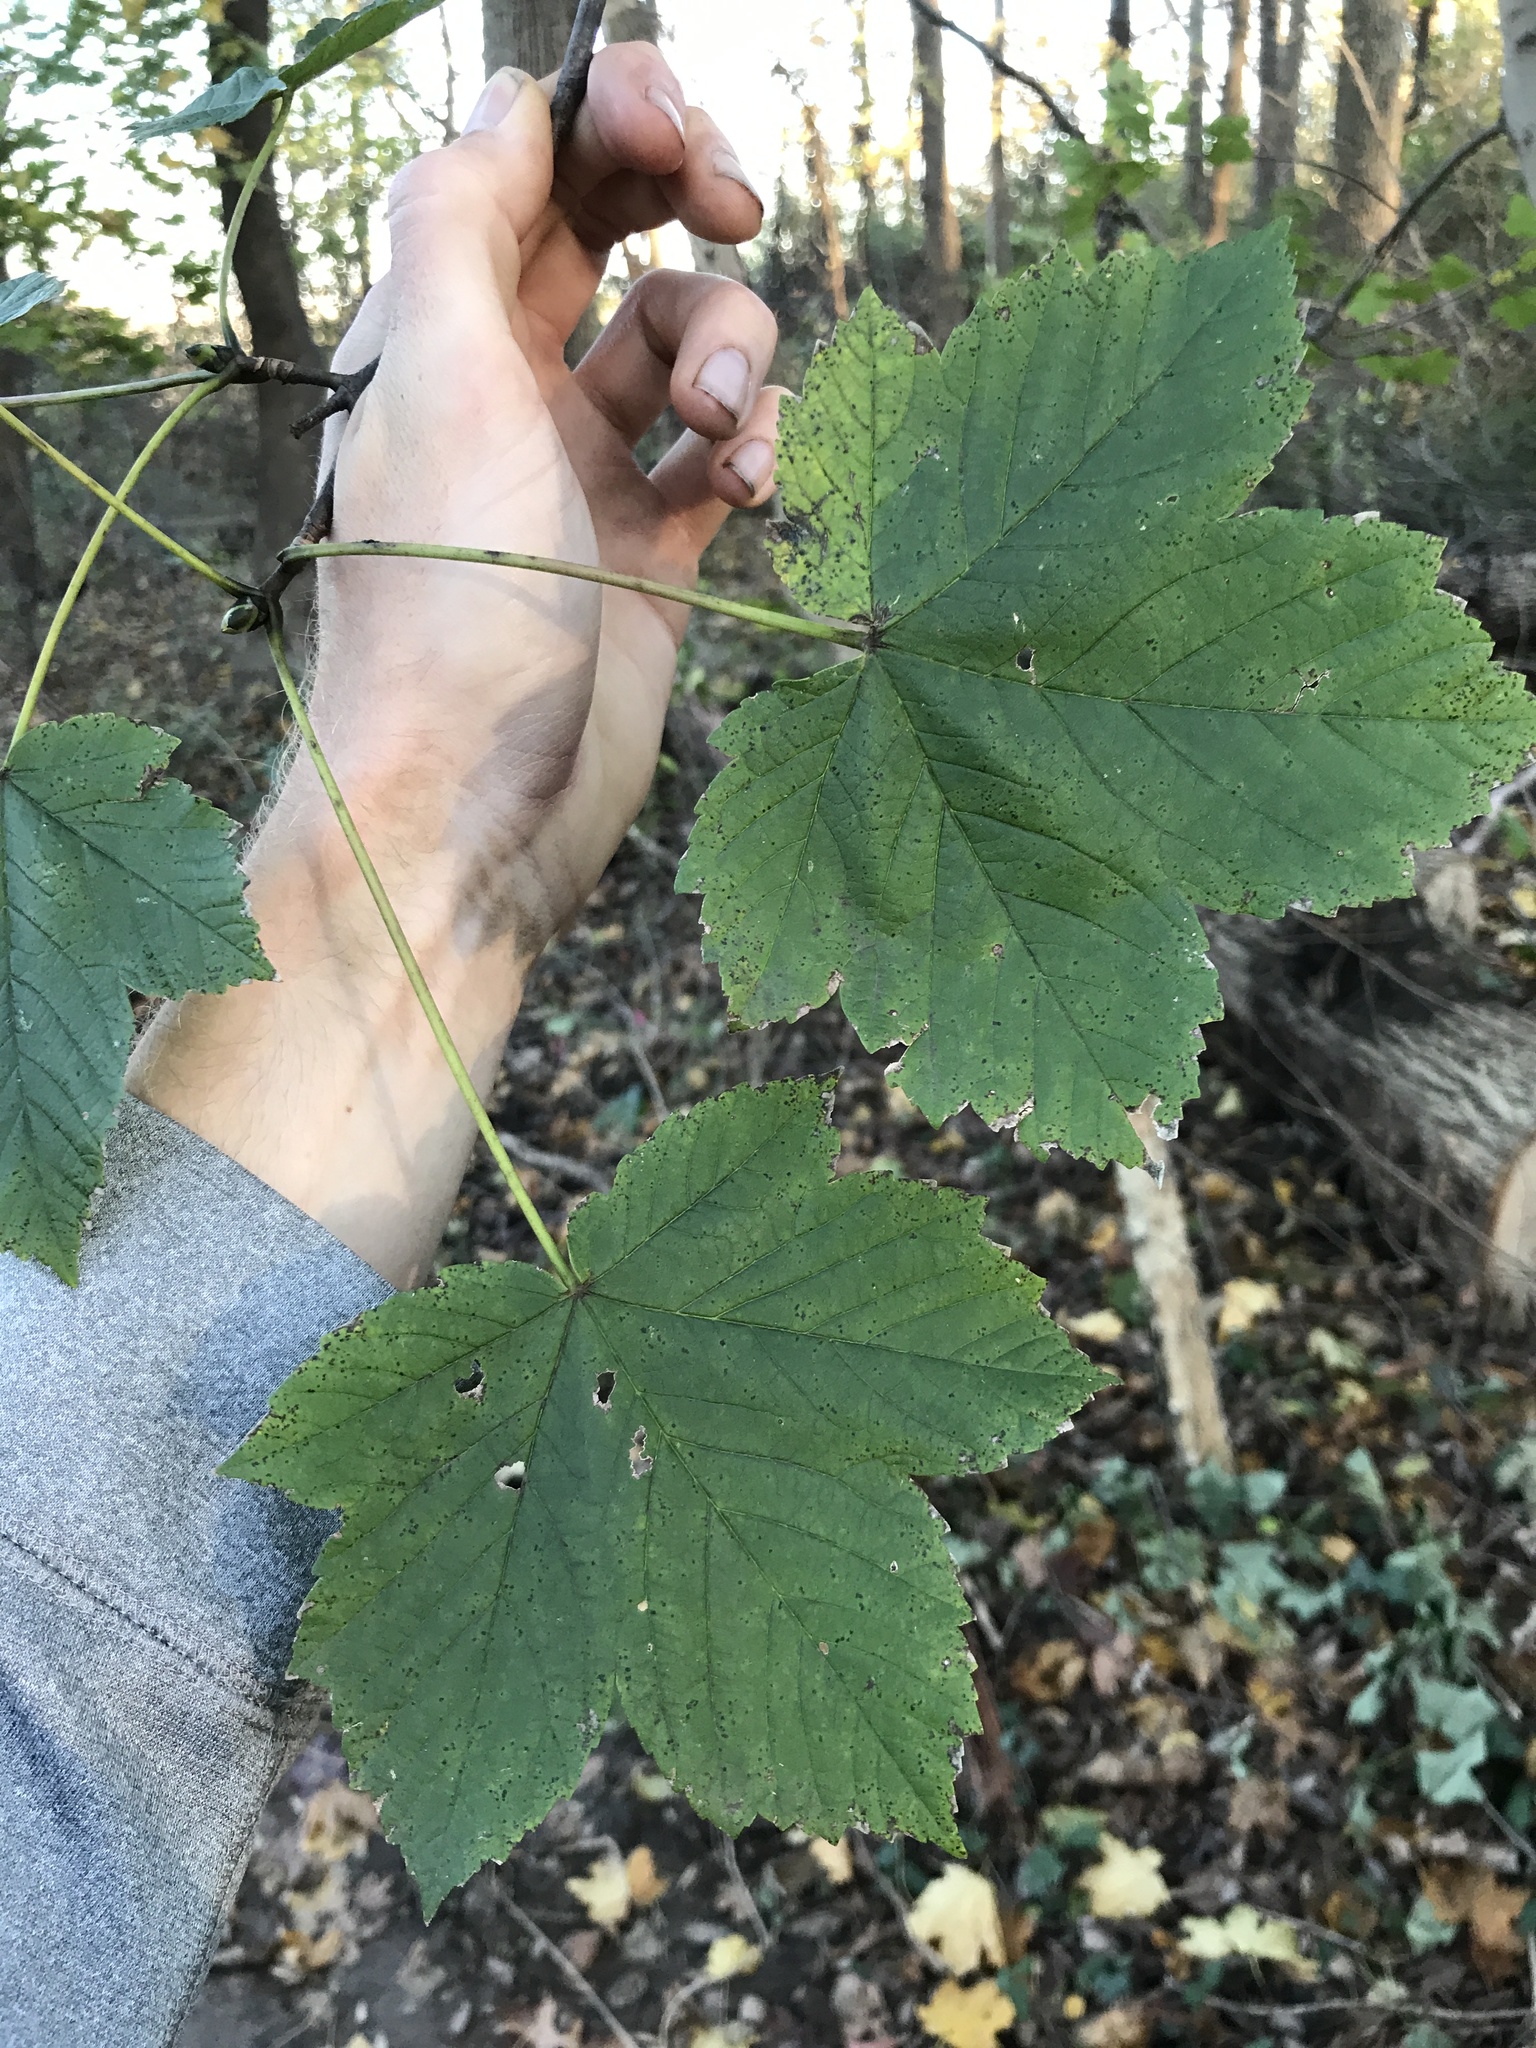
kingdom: Plantae
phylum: Tracheophyta
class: Magnoliopsida
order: Sapindales
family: Sapindaceae
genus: Acer
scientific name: Acer pseudoplatanus
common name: Sycamore
